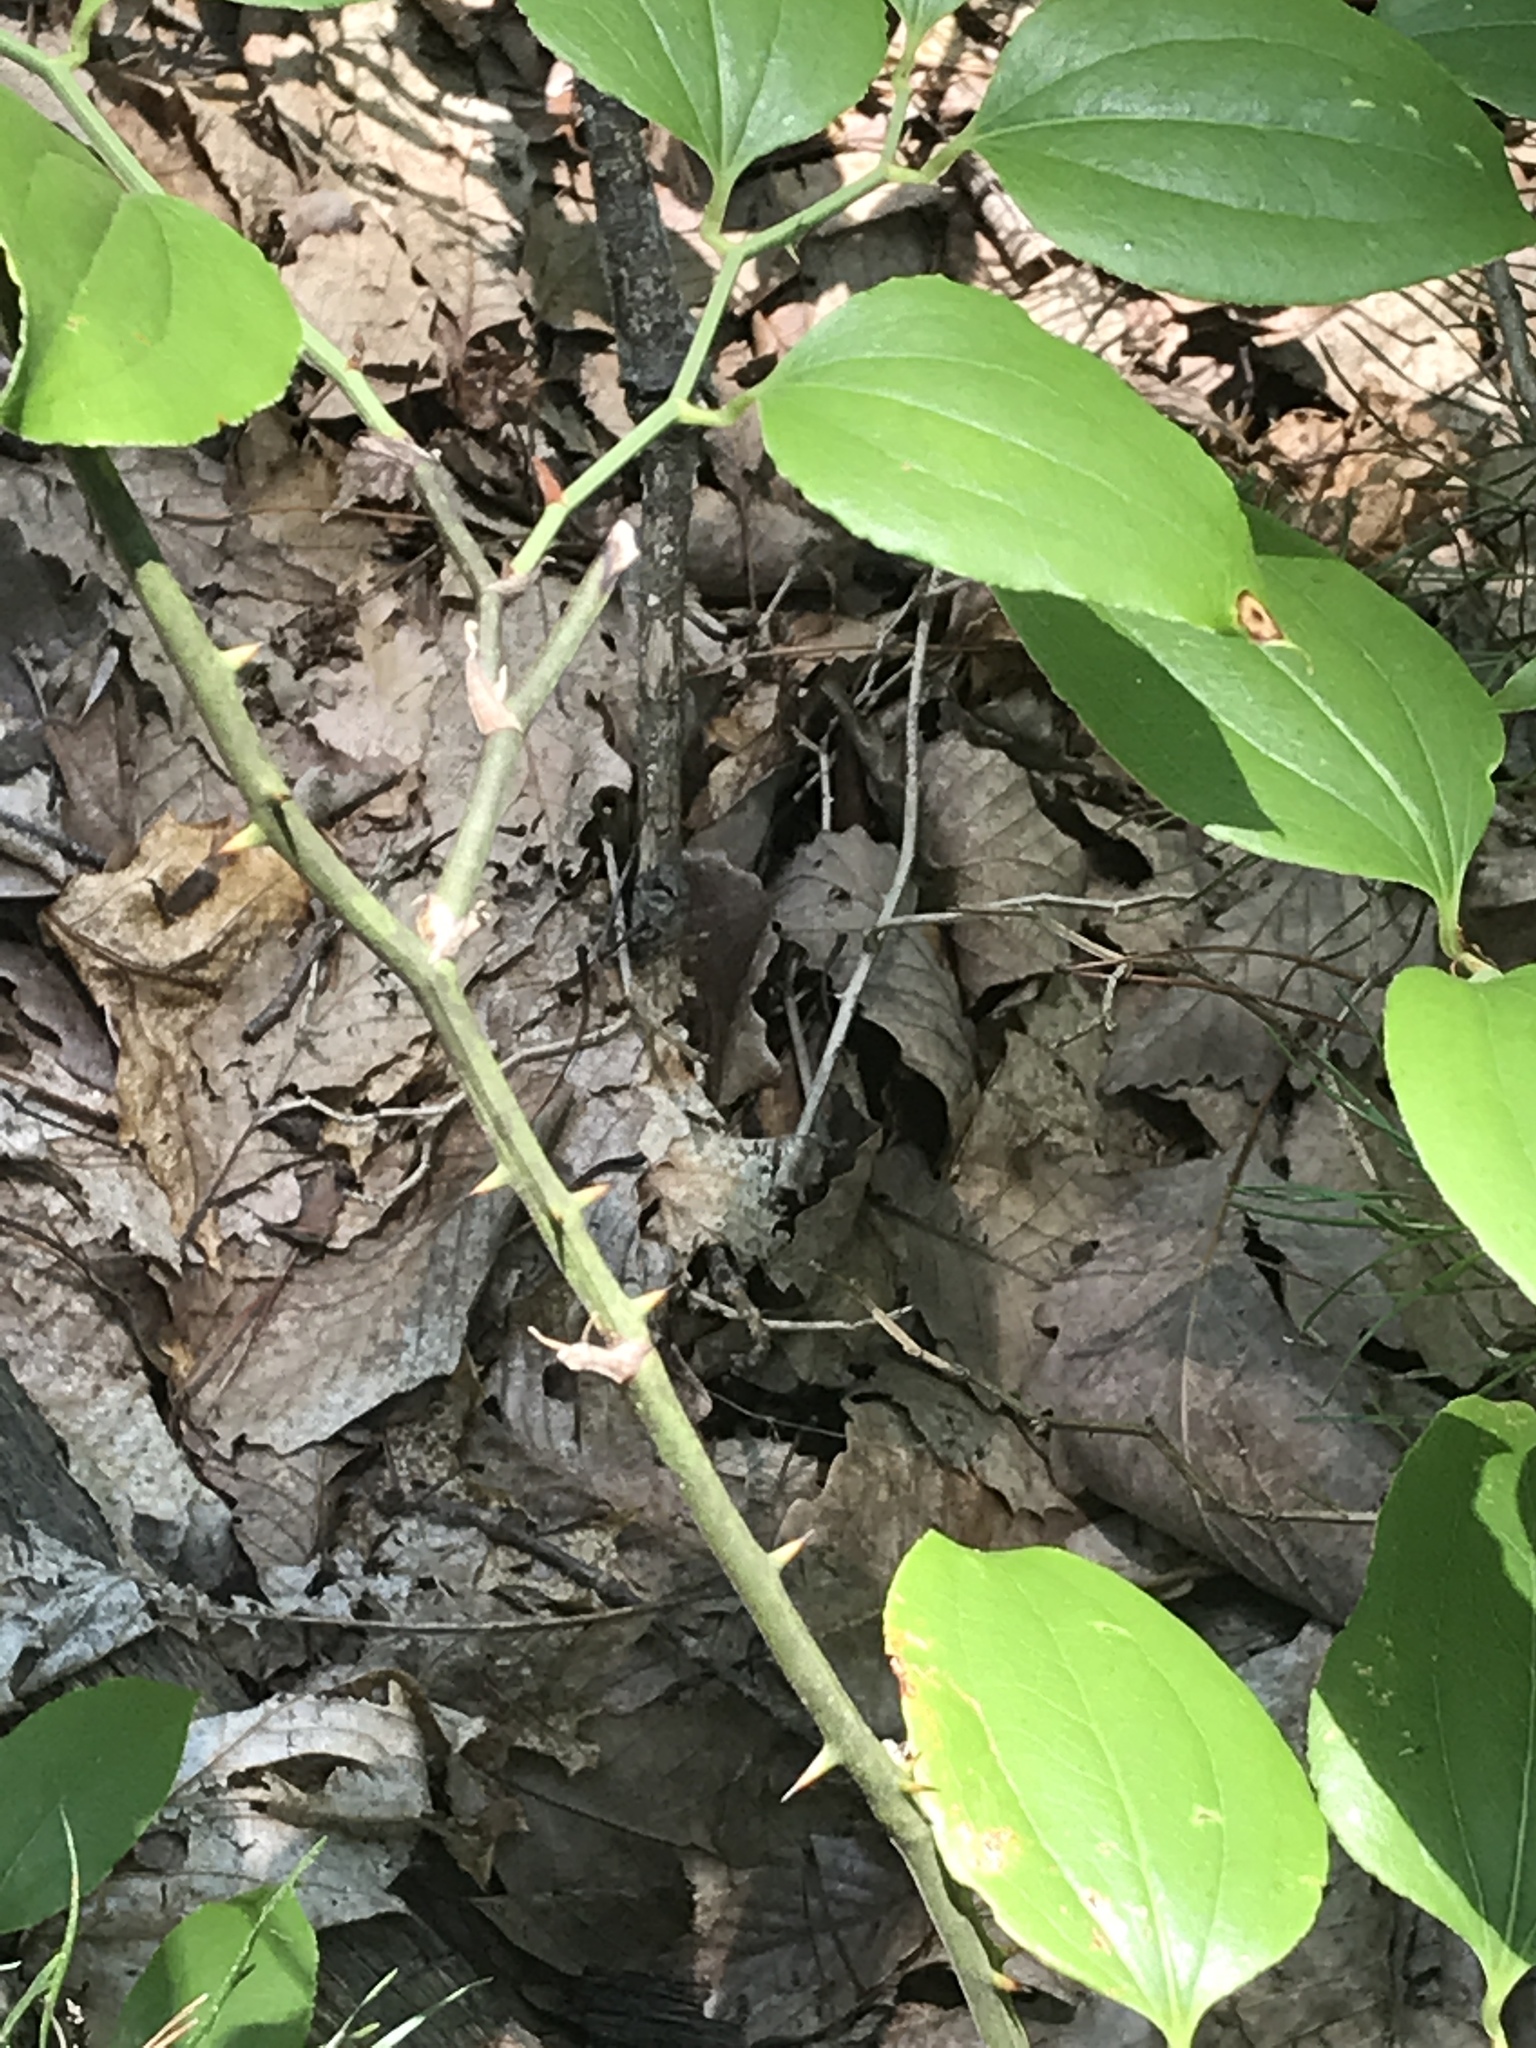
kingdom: Plantae
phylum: Tracheophyta
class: Liliopsida
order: Liliales
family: Smilacaceae
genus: Smilax
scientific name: Smilax rotundifolia
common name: Bullbriar
